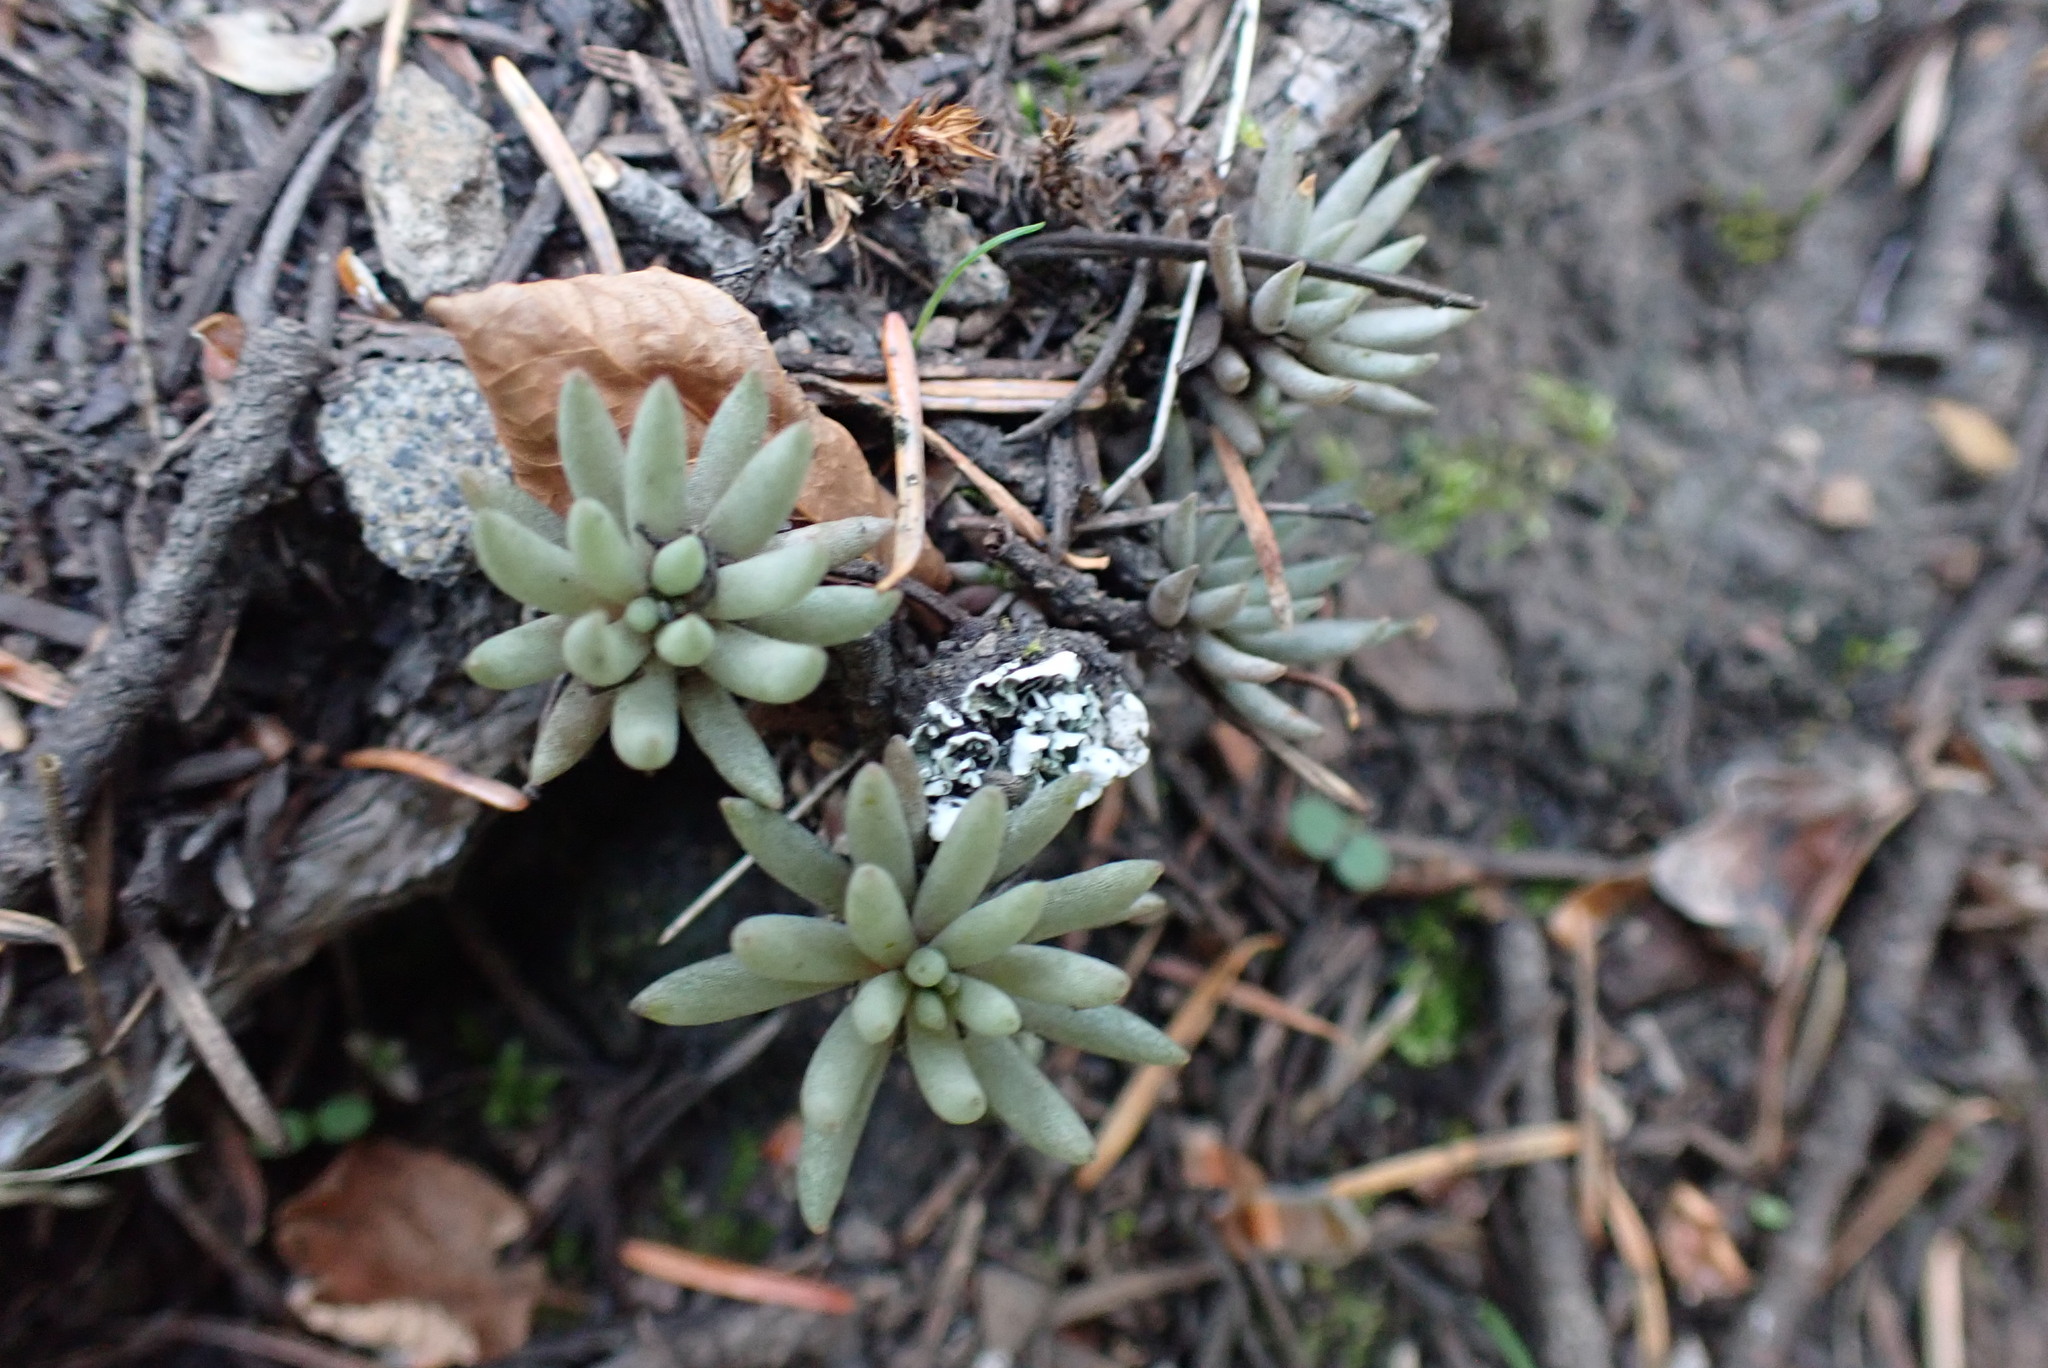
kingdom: Plantae
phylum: Tracheophyta
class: Magnoliopsida
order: Saxifragales
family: Crassulaceae
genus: Sedum
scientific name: Sedum lanceolatum
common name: Common stonecrop
